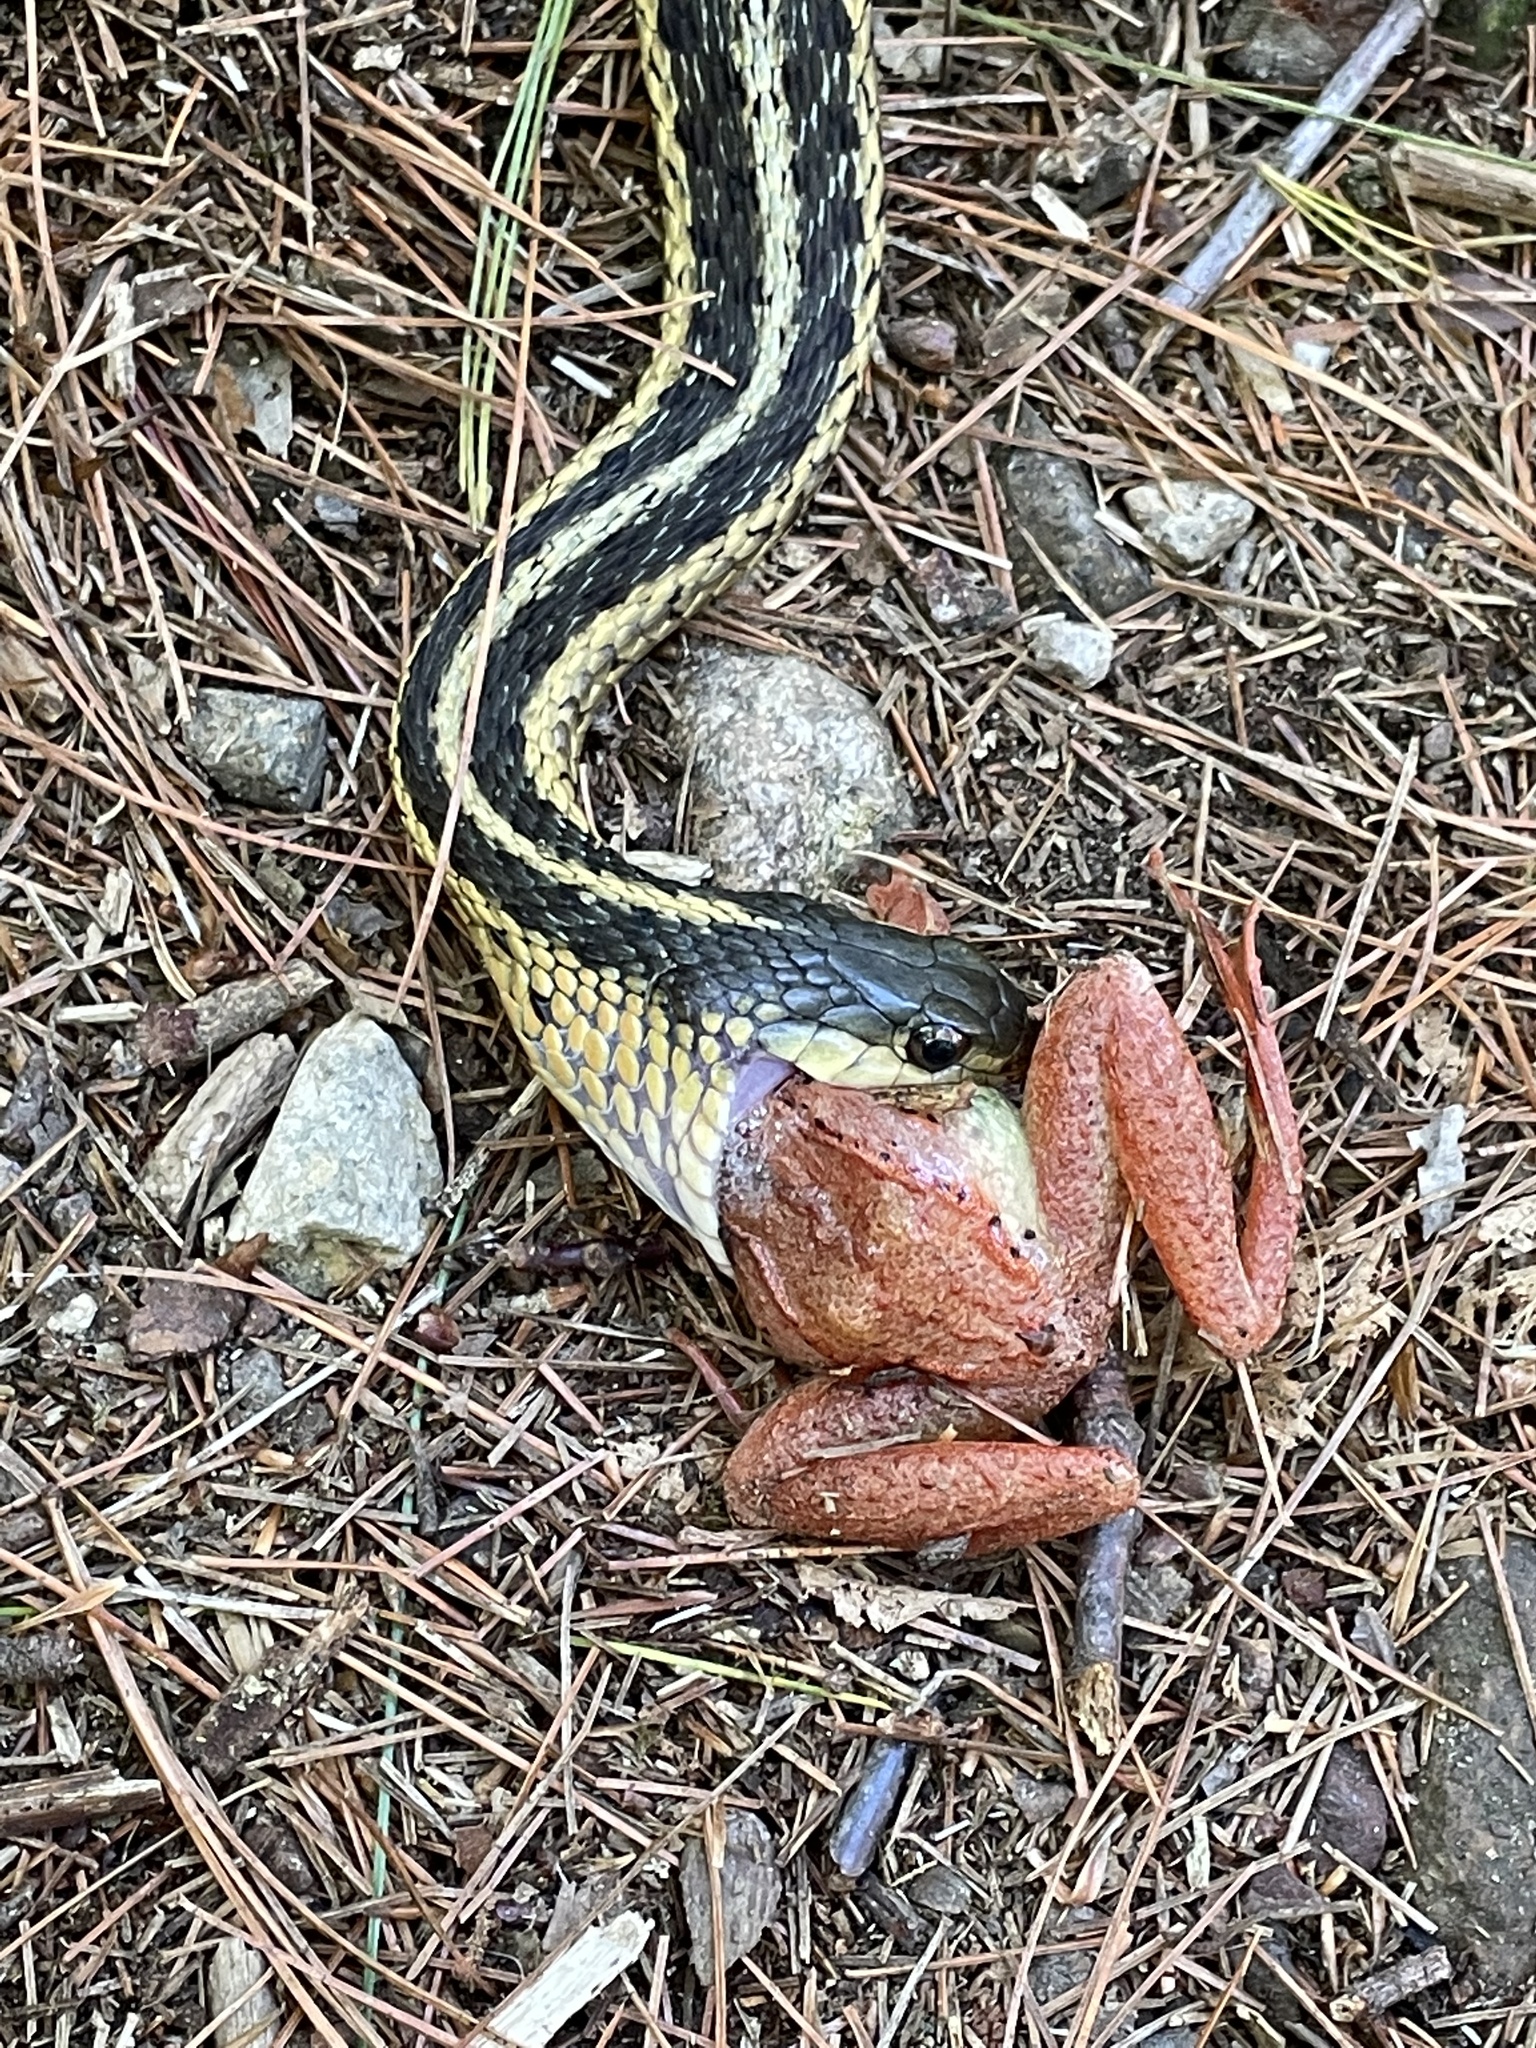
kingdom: Animalia
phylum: Chordata
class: Squamata
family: Colubridae
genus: Thamnophis
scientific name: Thamnophis sirtalis
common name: Common garter snake
